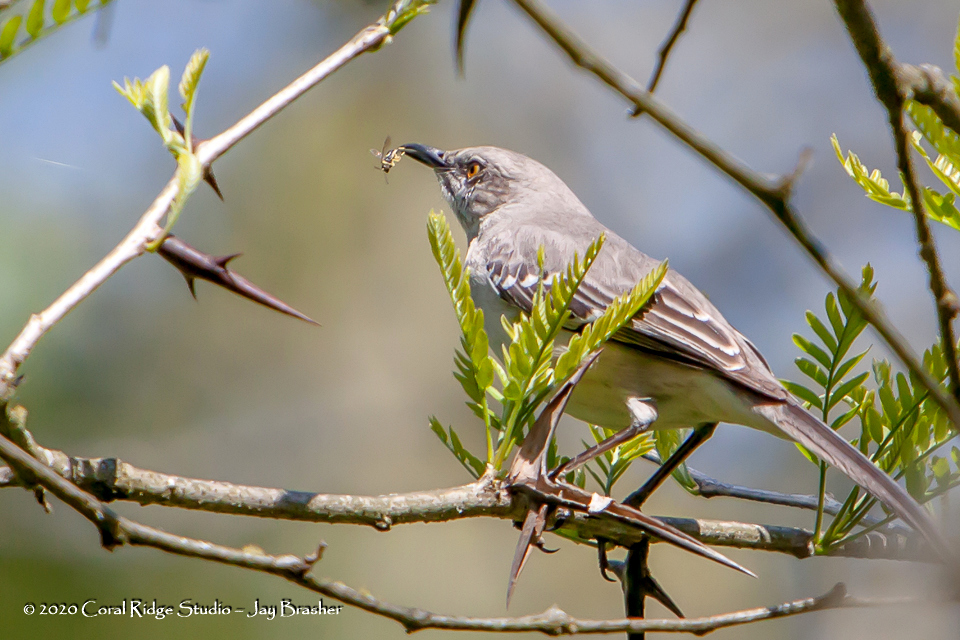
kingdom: Animalia
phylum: Chordata
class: Aves
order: Passeriformes
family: Mimidae
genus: Mimus
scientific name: Mimus polyglottos
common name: Northern mockingbird
